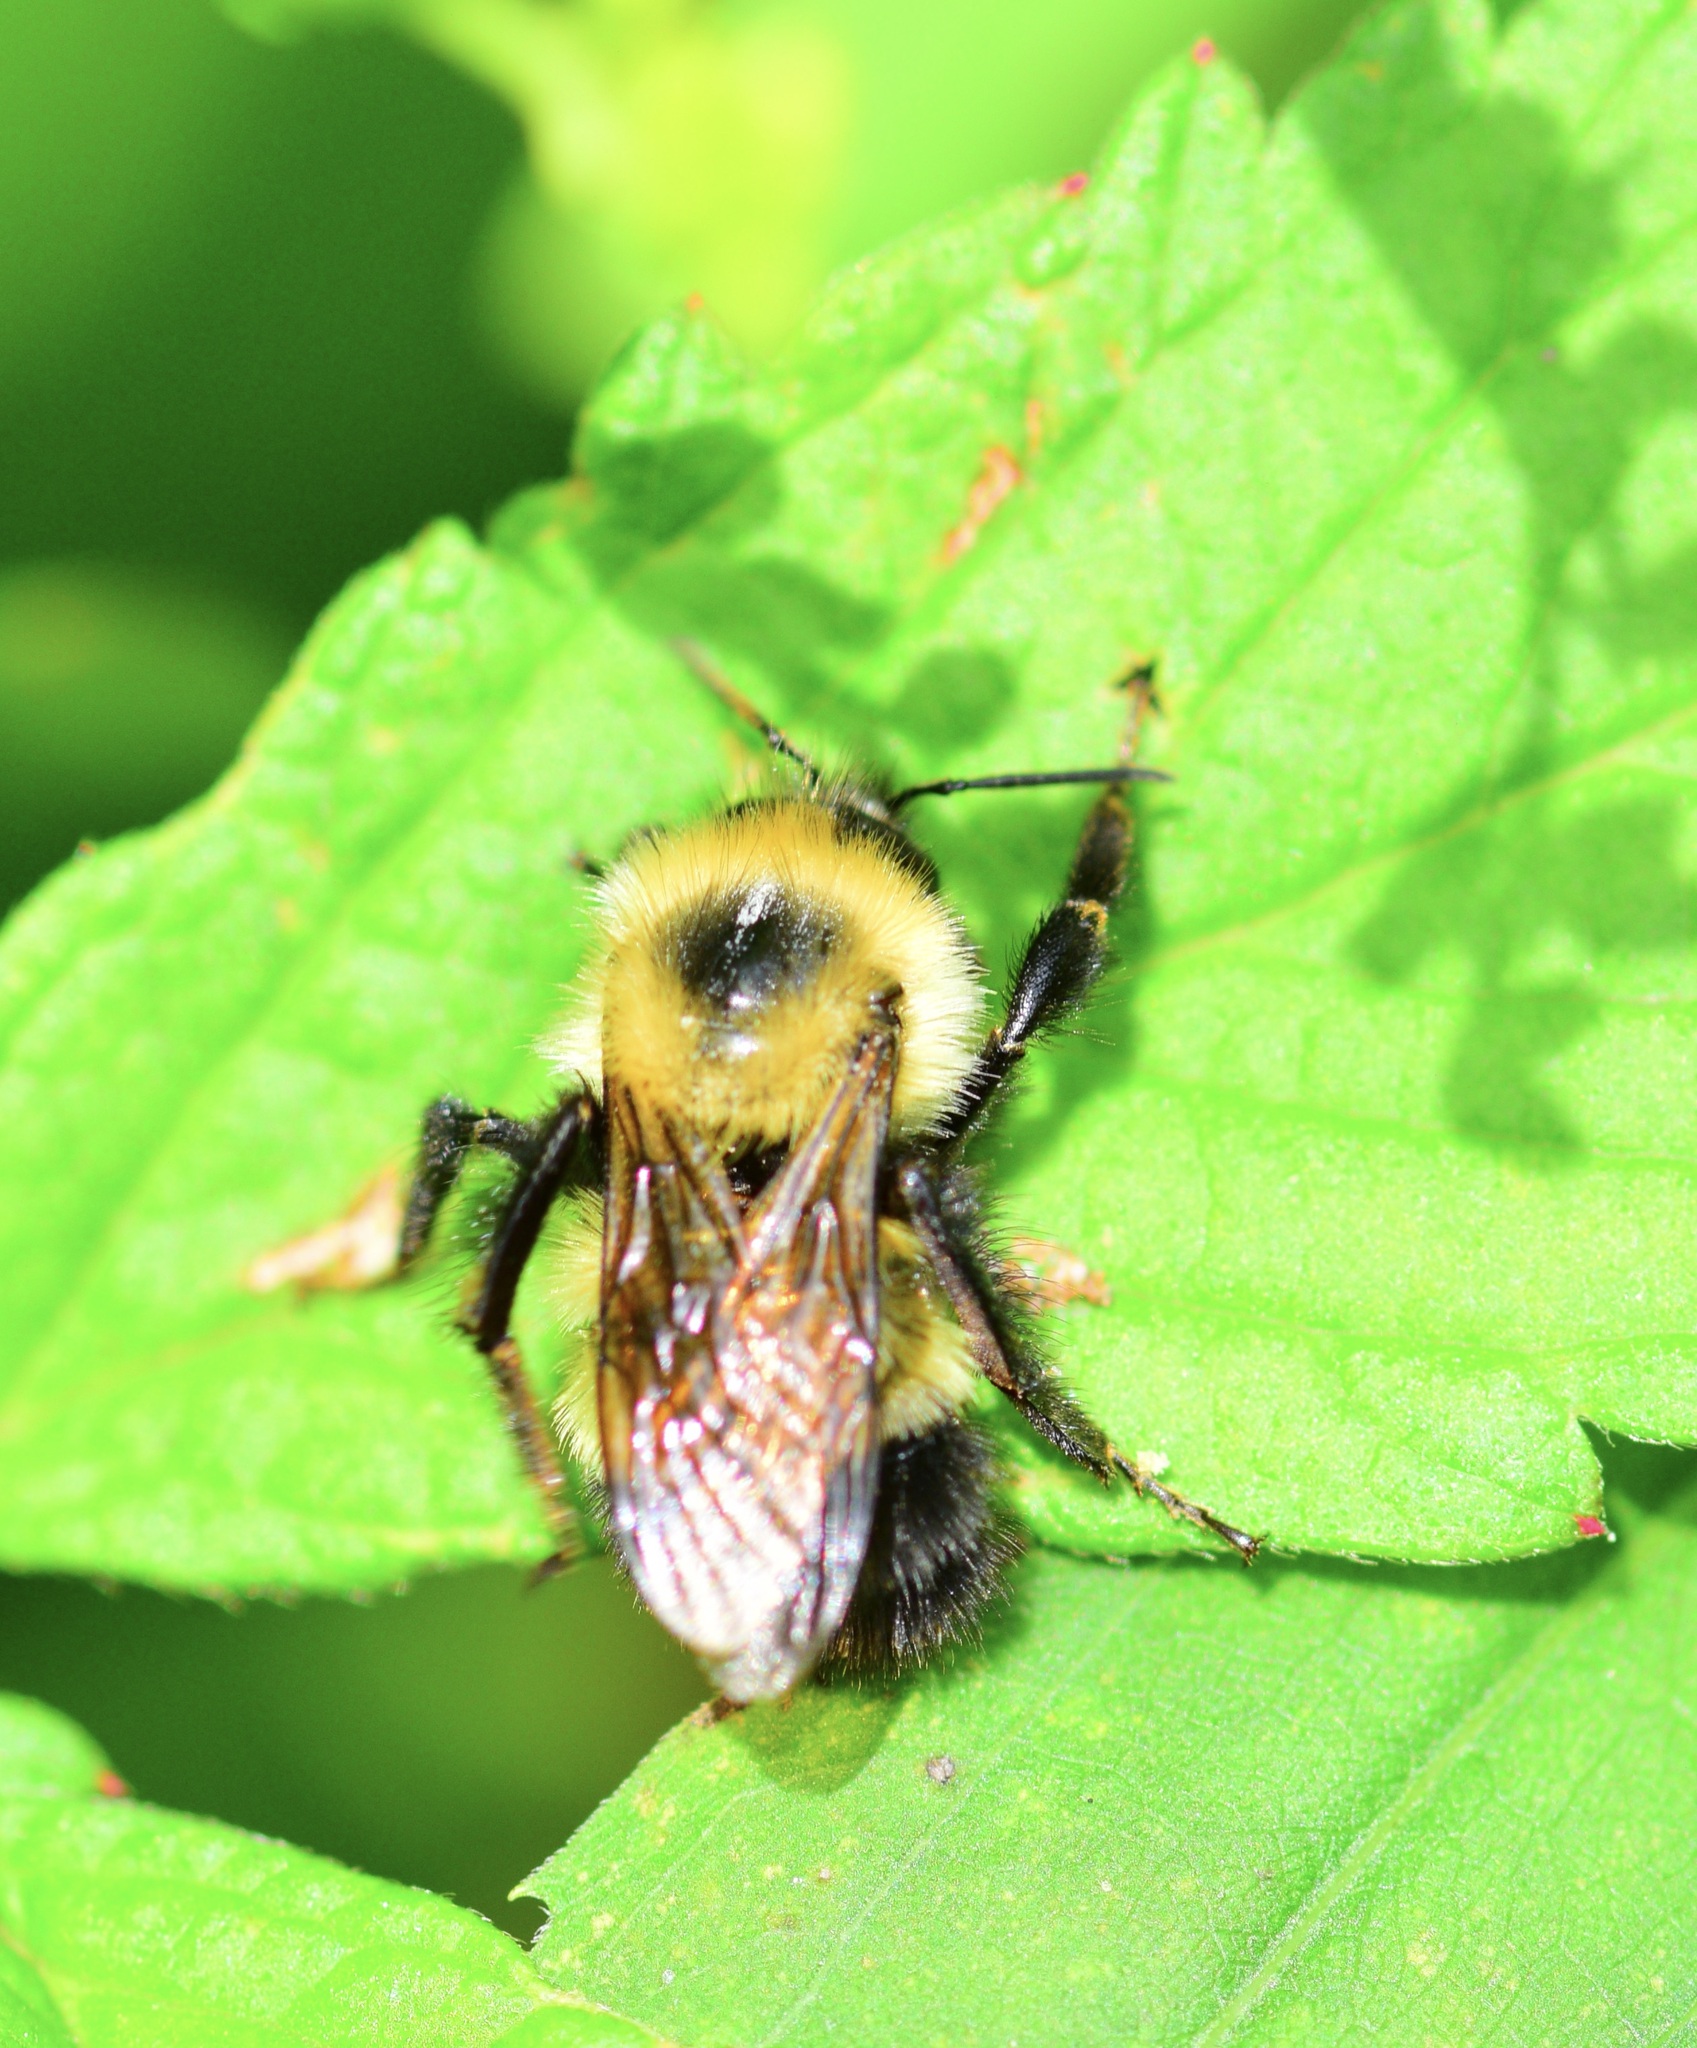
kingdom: Animalia
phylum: Arthropoda
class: Insecta
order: Hymenoptera
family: Apidae
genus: Pyrobombus
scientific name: Pyrobombus
